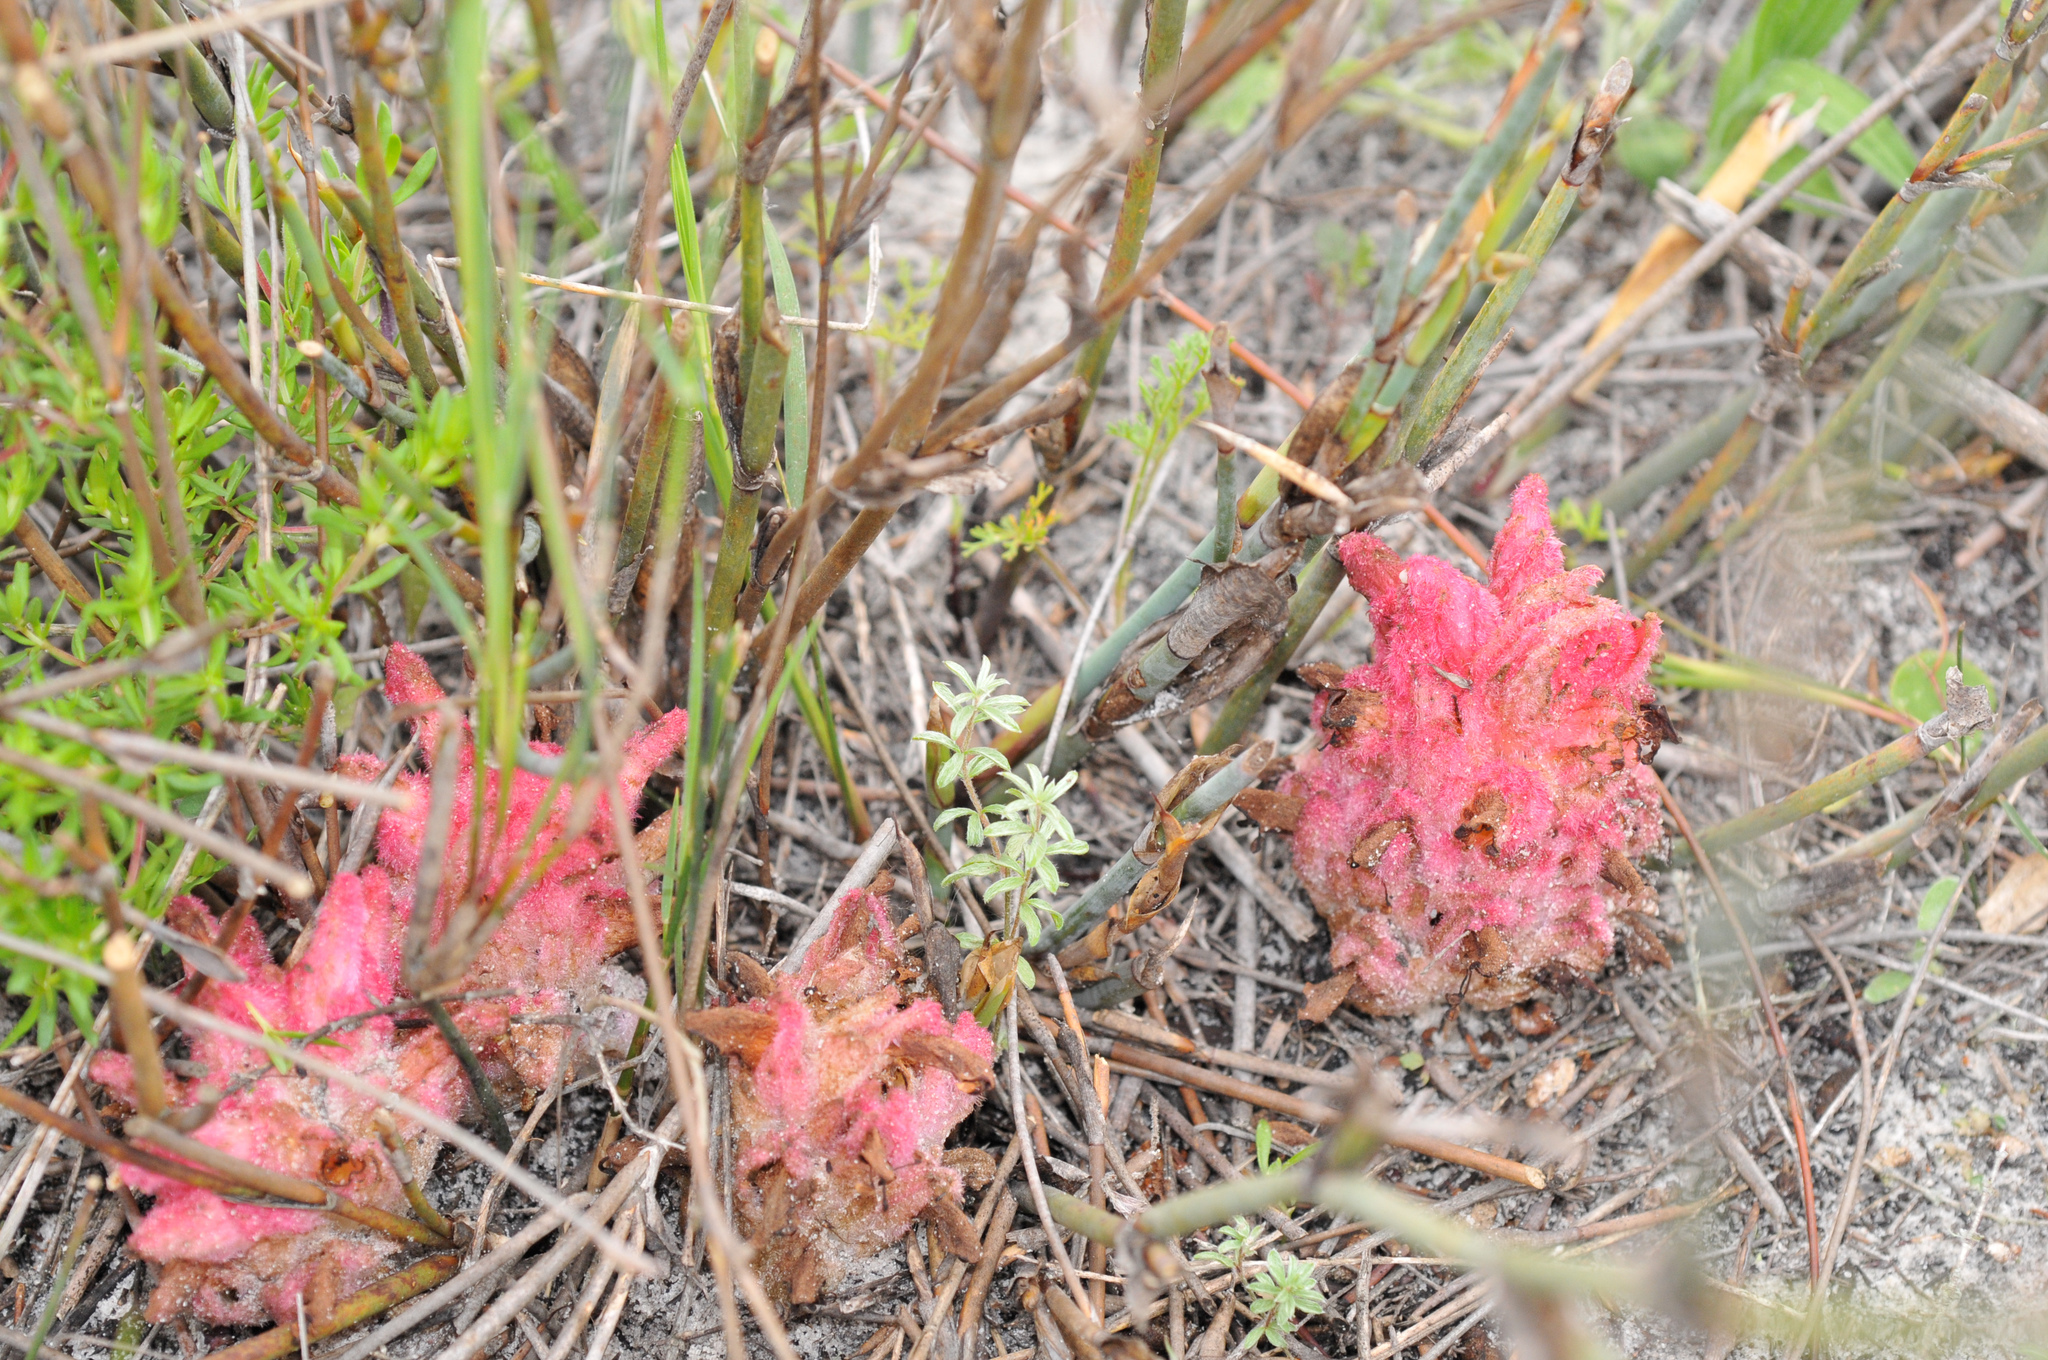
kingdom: Plantae
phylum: Tracheophyta
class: Magnoliopsida
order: Lamiales
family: Orobanchaceae
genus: Hyobanche
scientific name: Hyobanche sanguinea
